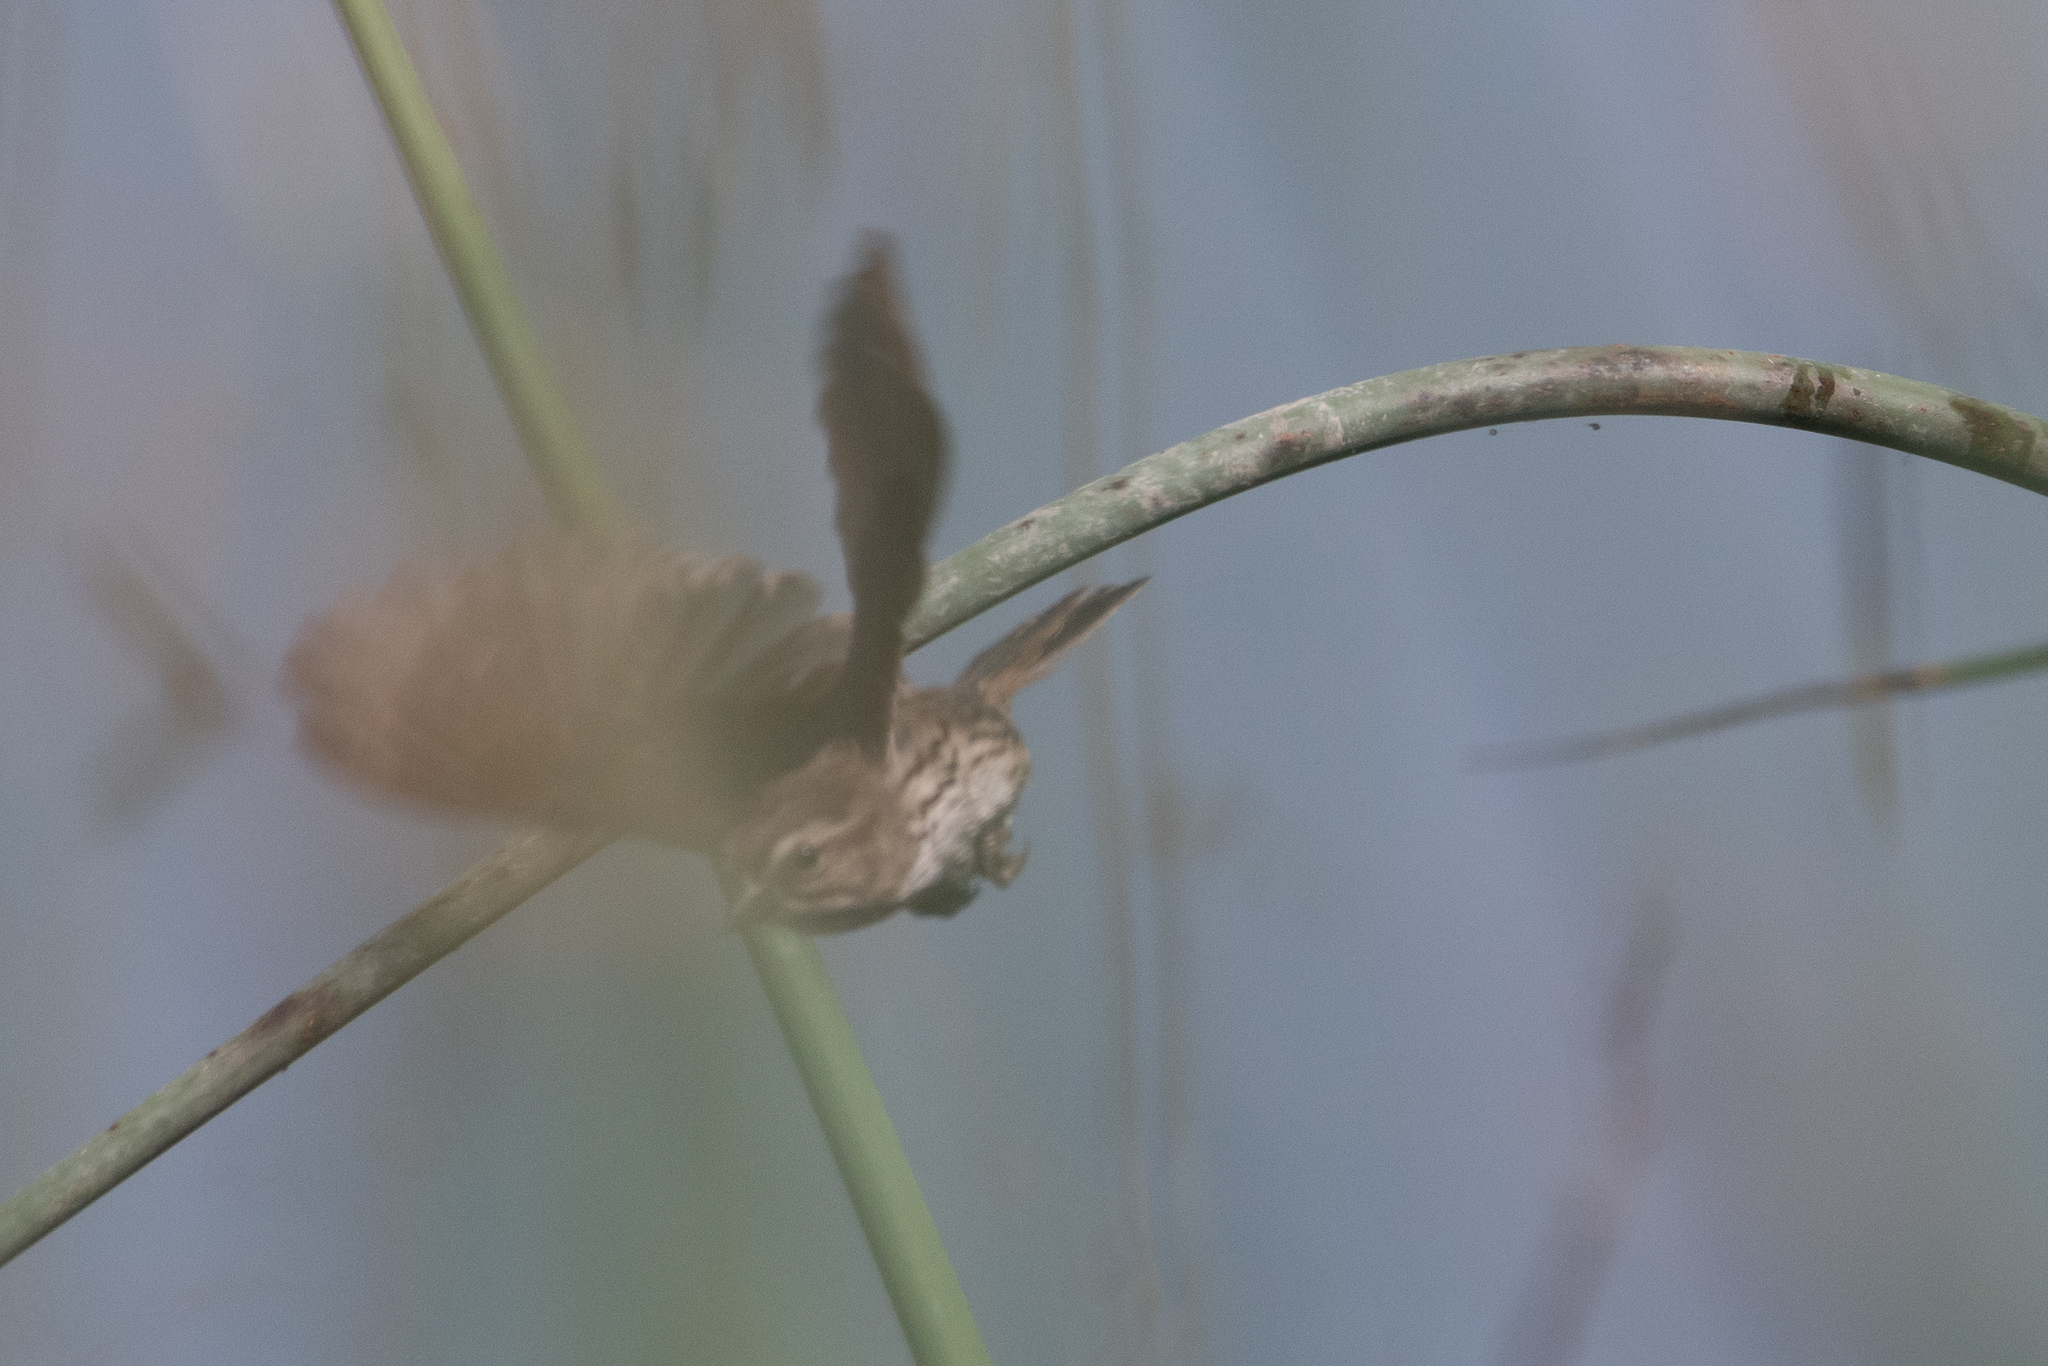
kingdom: Animalia
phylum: Chordata
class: Aves
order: Passeriformes
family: Passerellidae
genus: Melospiza
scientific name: Melospiza melodia
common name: Song sparrow
